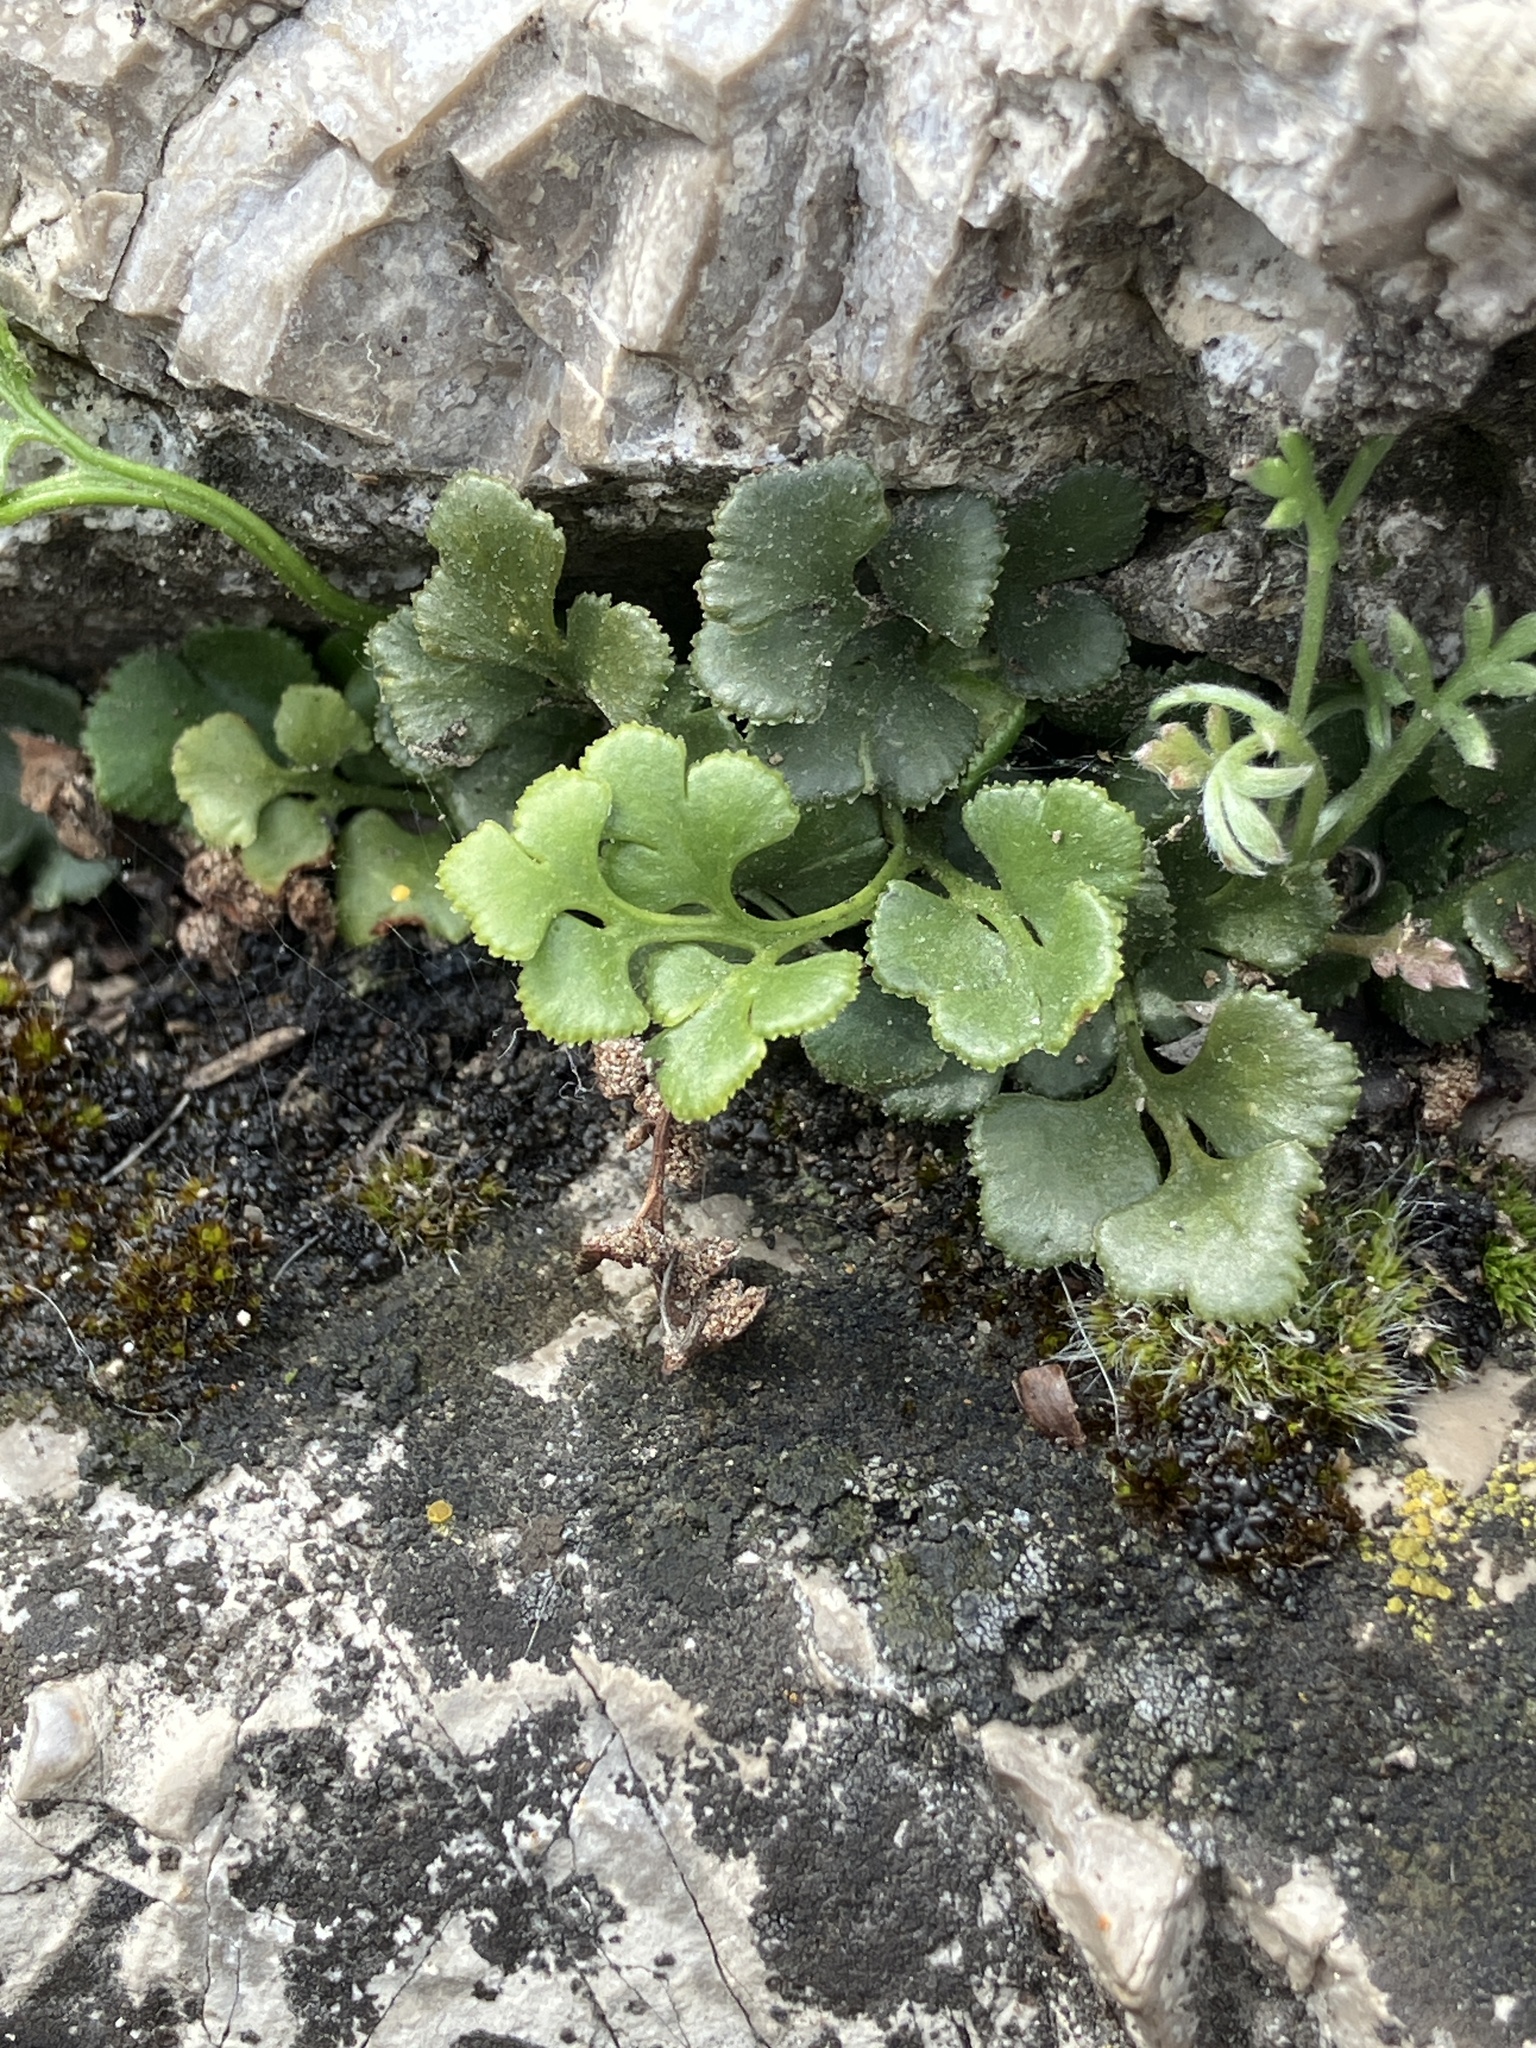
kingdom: Plantae
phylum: Tracheophyta
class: Polypodiopsida
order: Polypodiales
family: Aspleniaceae
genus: Asplenium
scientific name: Asplenium ruta-muraria
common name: Wall-rue
